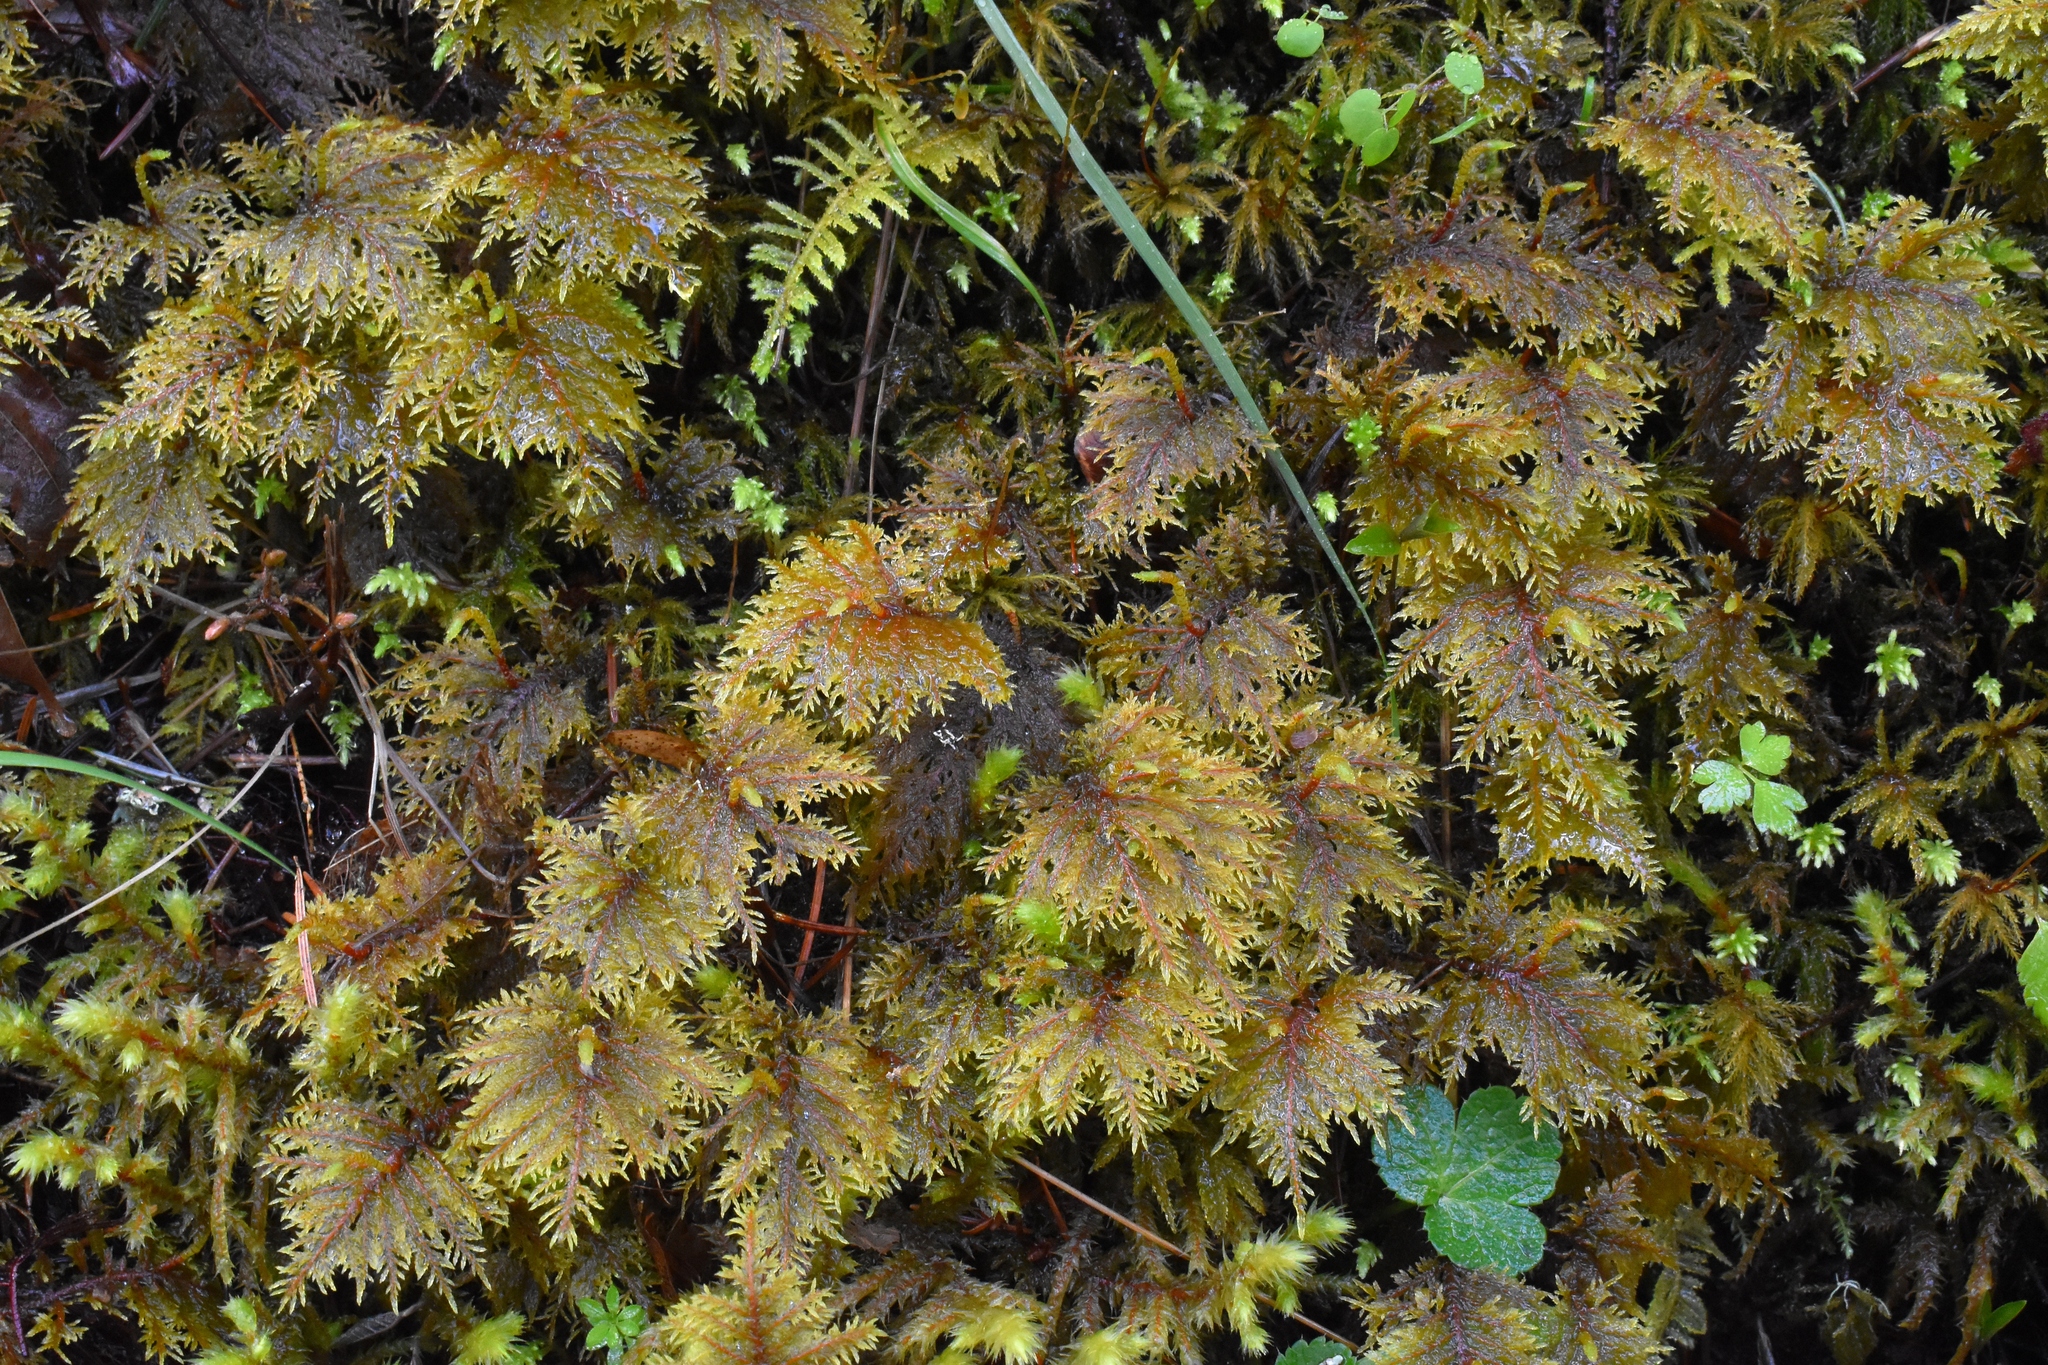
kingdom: Plantae
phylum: Bryophyta
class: Bryopsida
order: Hypnales
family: Hylocomiaceae
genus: Hylocomium
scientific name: Hylocomium splendens
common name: Stairstep moss
